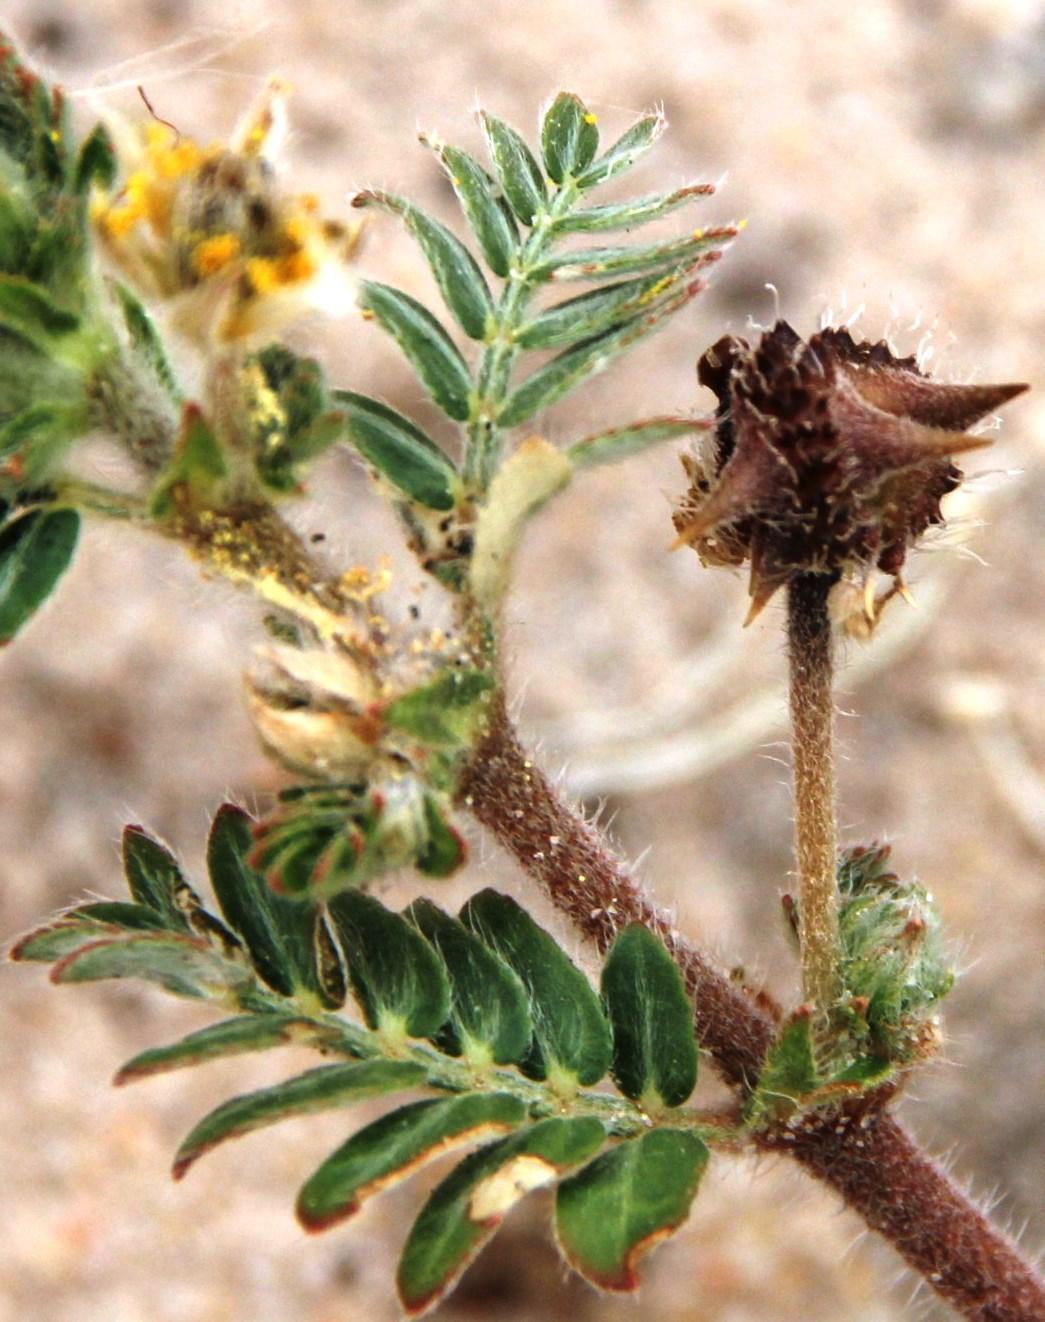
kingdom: Plantae
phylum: Tracheophyta
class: Magnoliopsida
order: Zygophyllales
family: Zygophyllaceae
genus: Tribulus
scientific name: Tribulus terrestris
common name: Puncturevine
